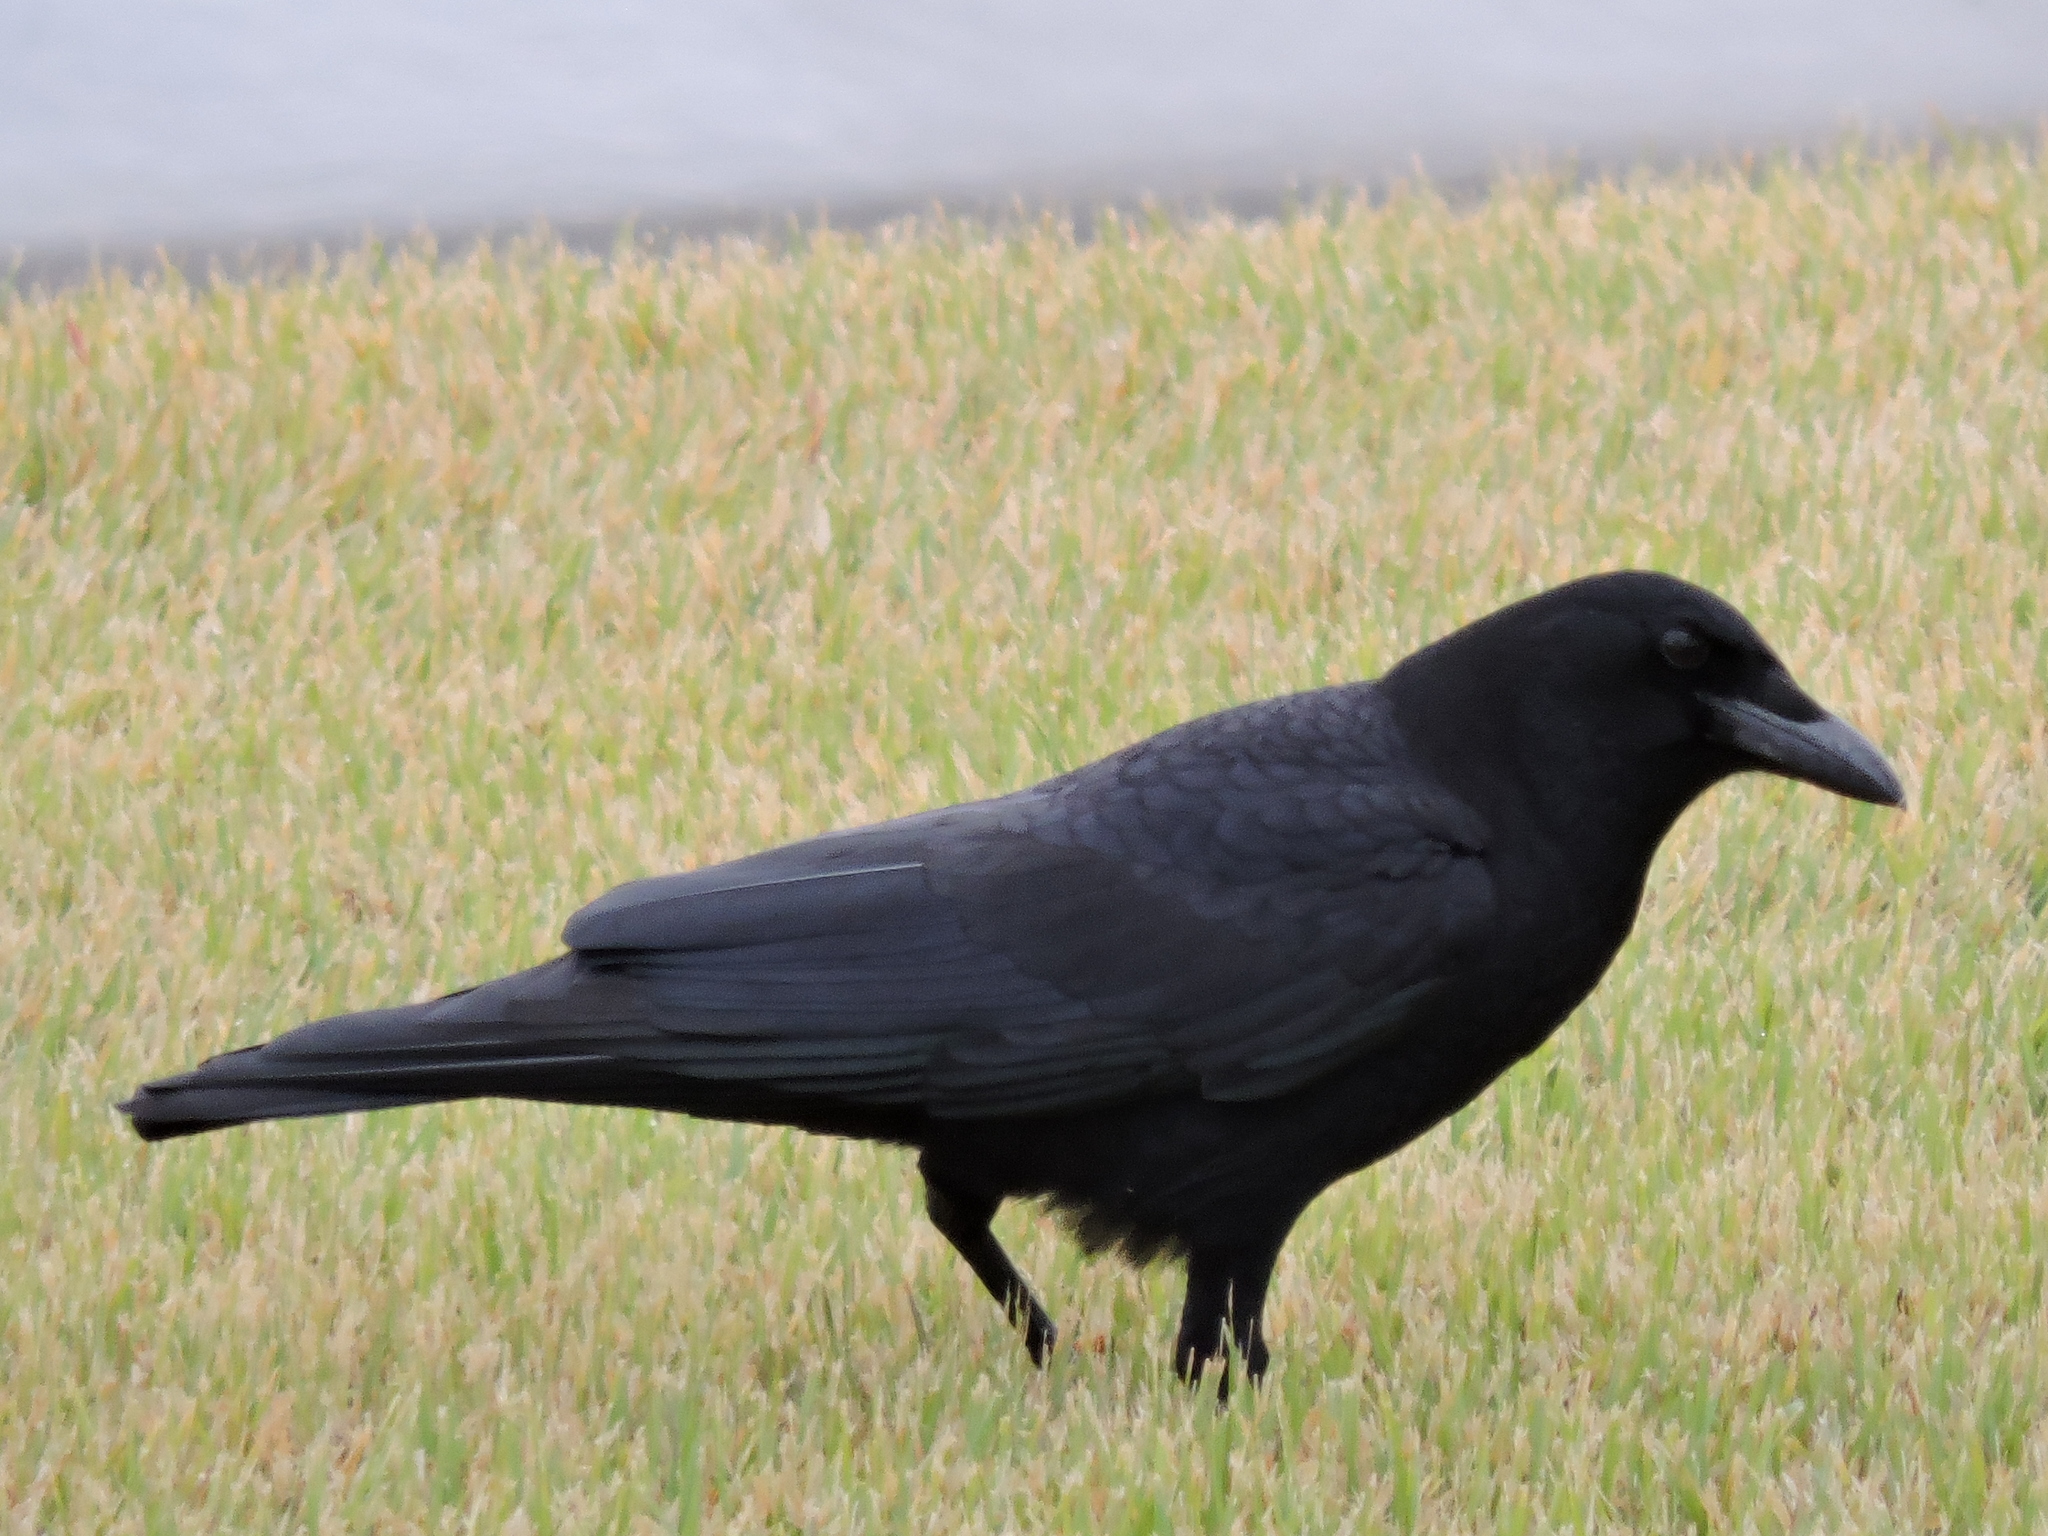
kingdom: Animalia
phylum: Chordata
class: Aves
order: Passeriformes
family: Corvidae
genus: Corvus
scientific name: Corvus brachyrhynchos
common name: American crow
